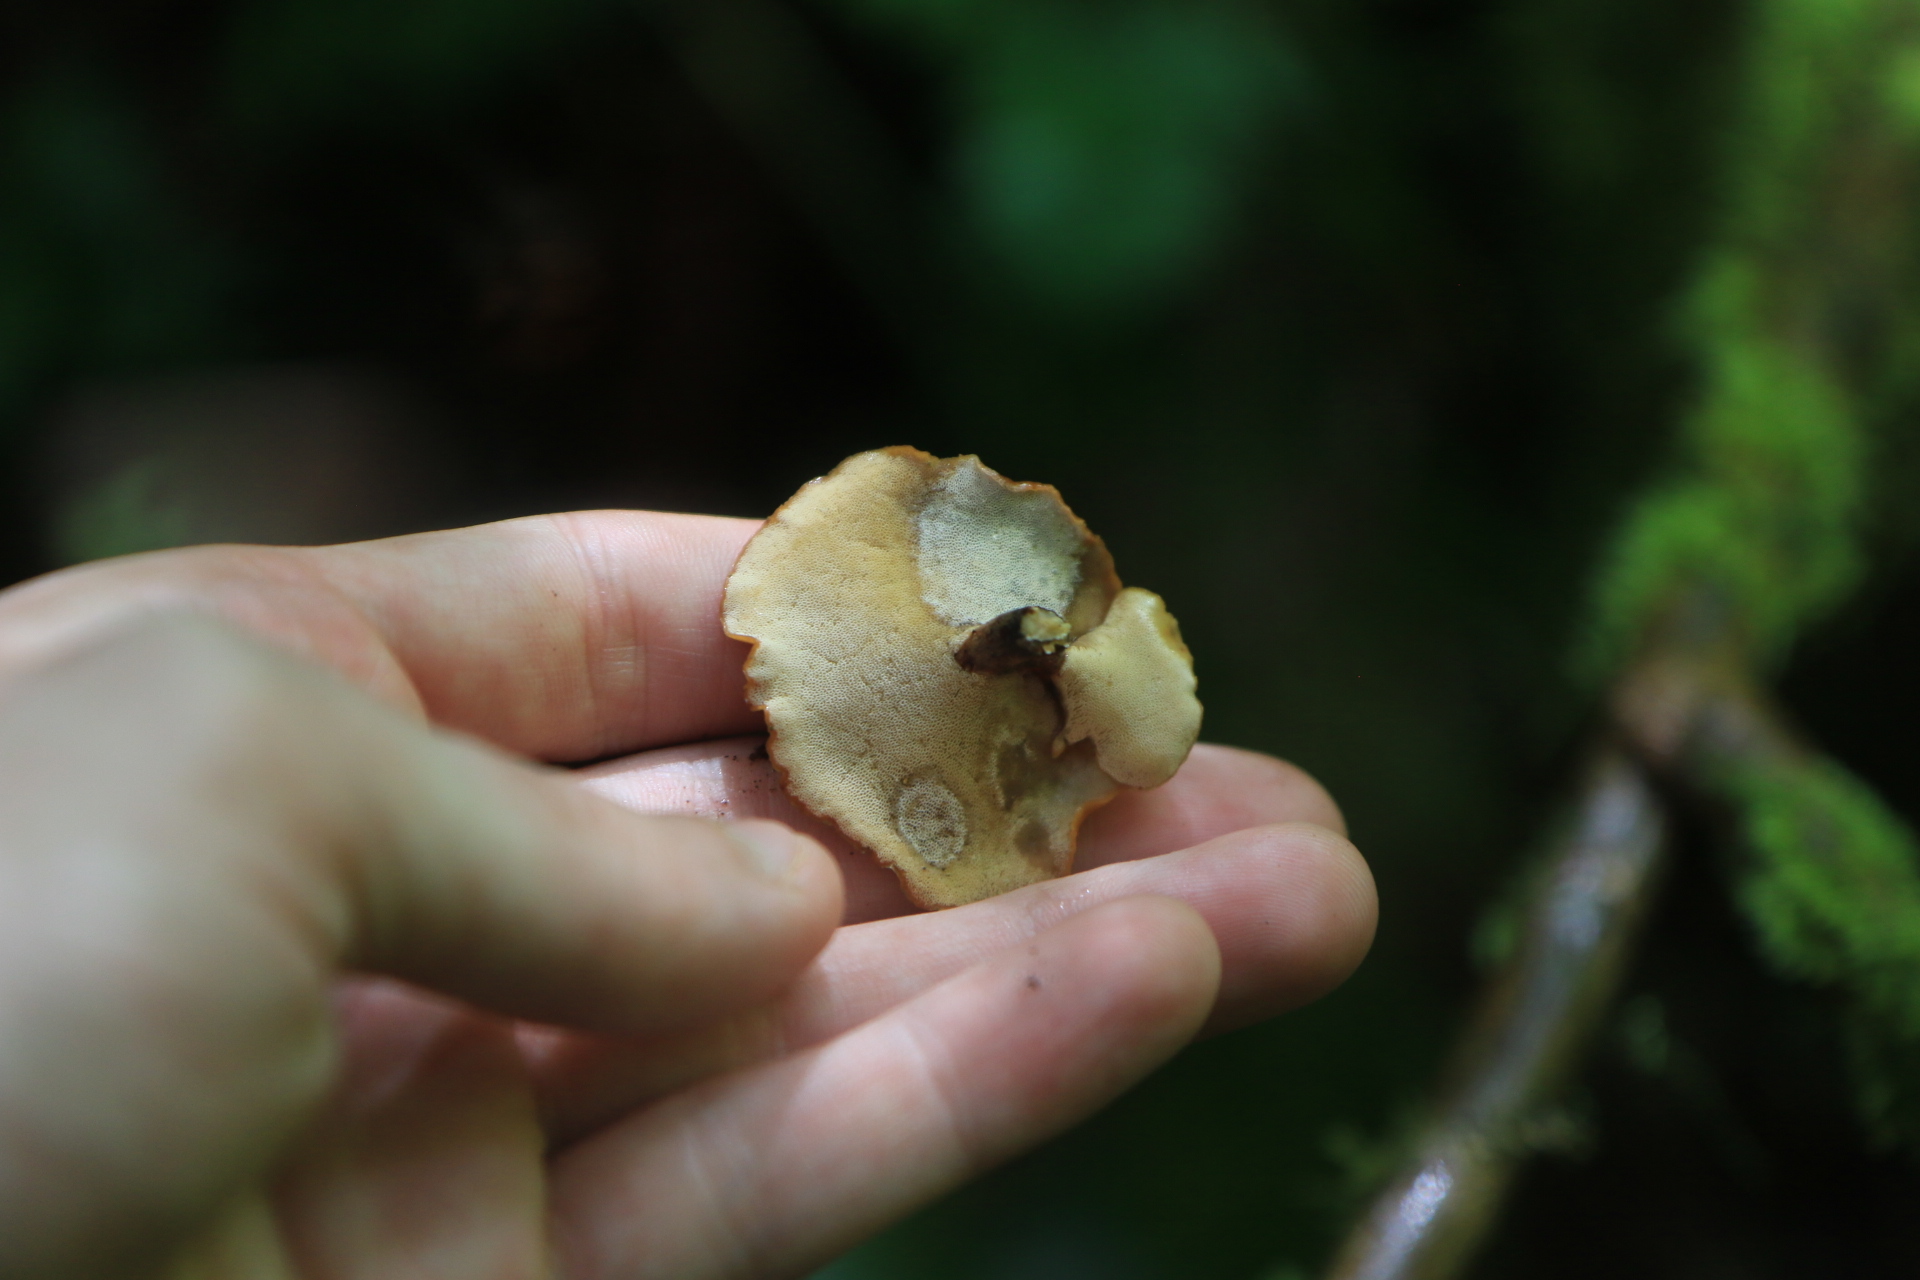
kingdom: Fungi
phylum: Basidiomycota
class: Agaricomycetes
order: Polyporales
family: Polyporaceae
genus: Cerioporus
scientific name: Cerioporus leptocephalus
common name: Blackfoot polypore
